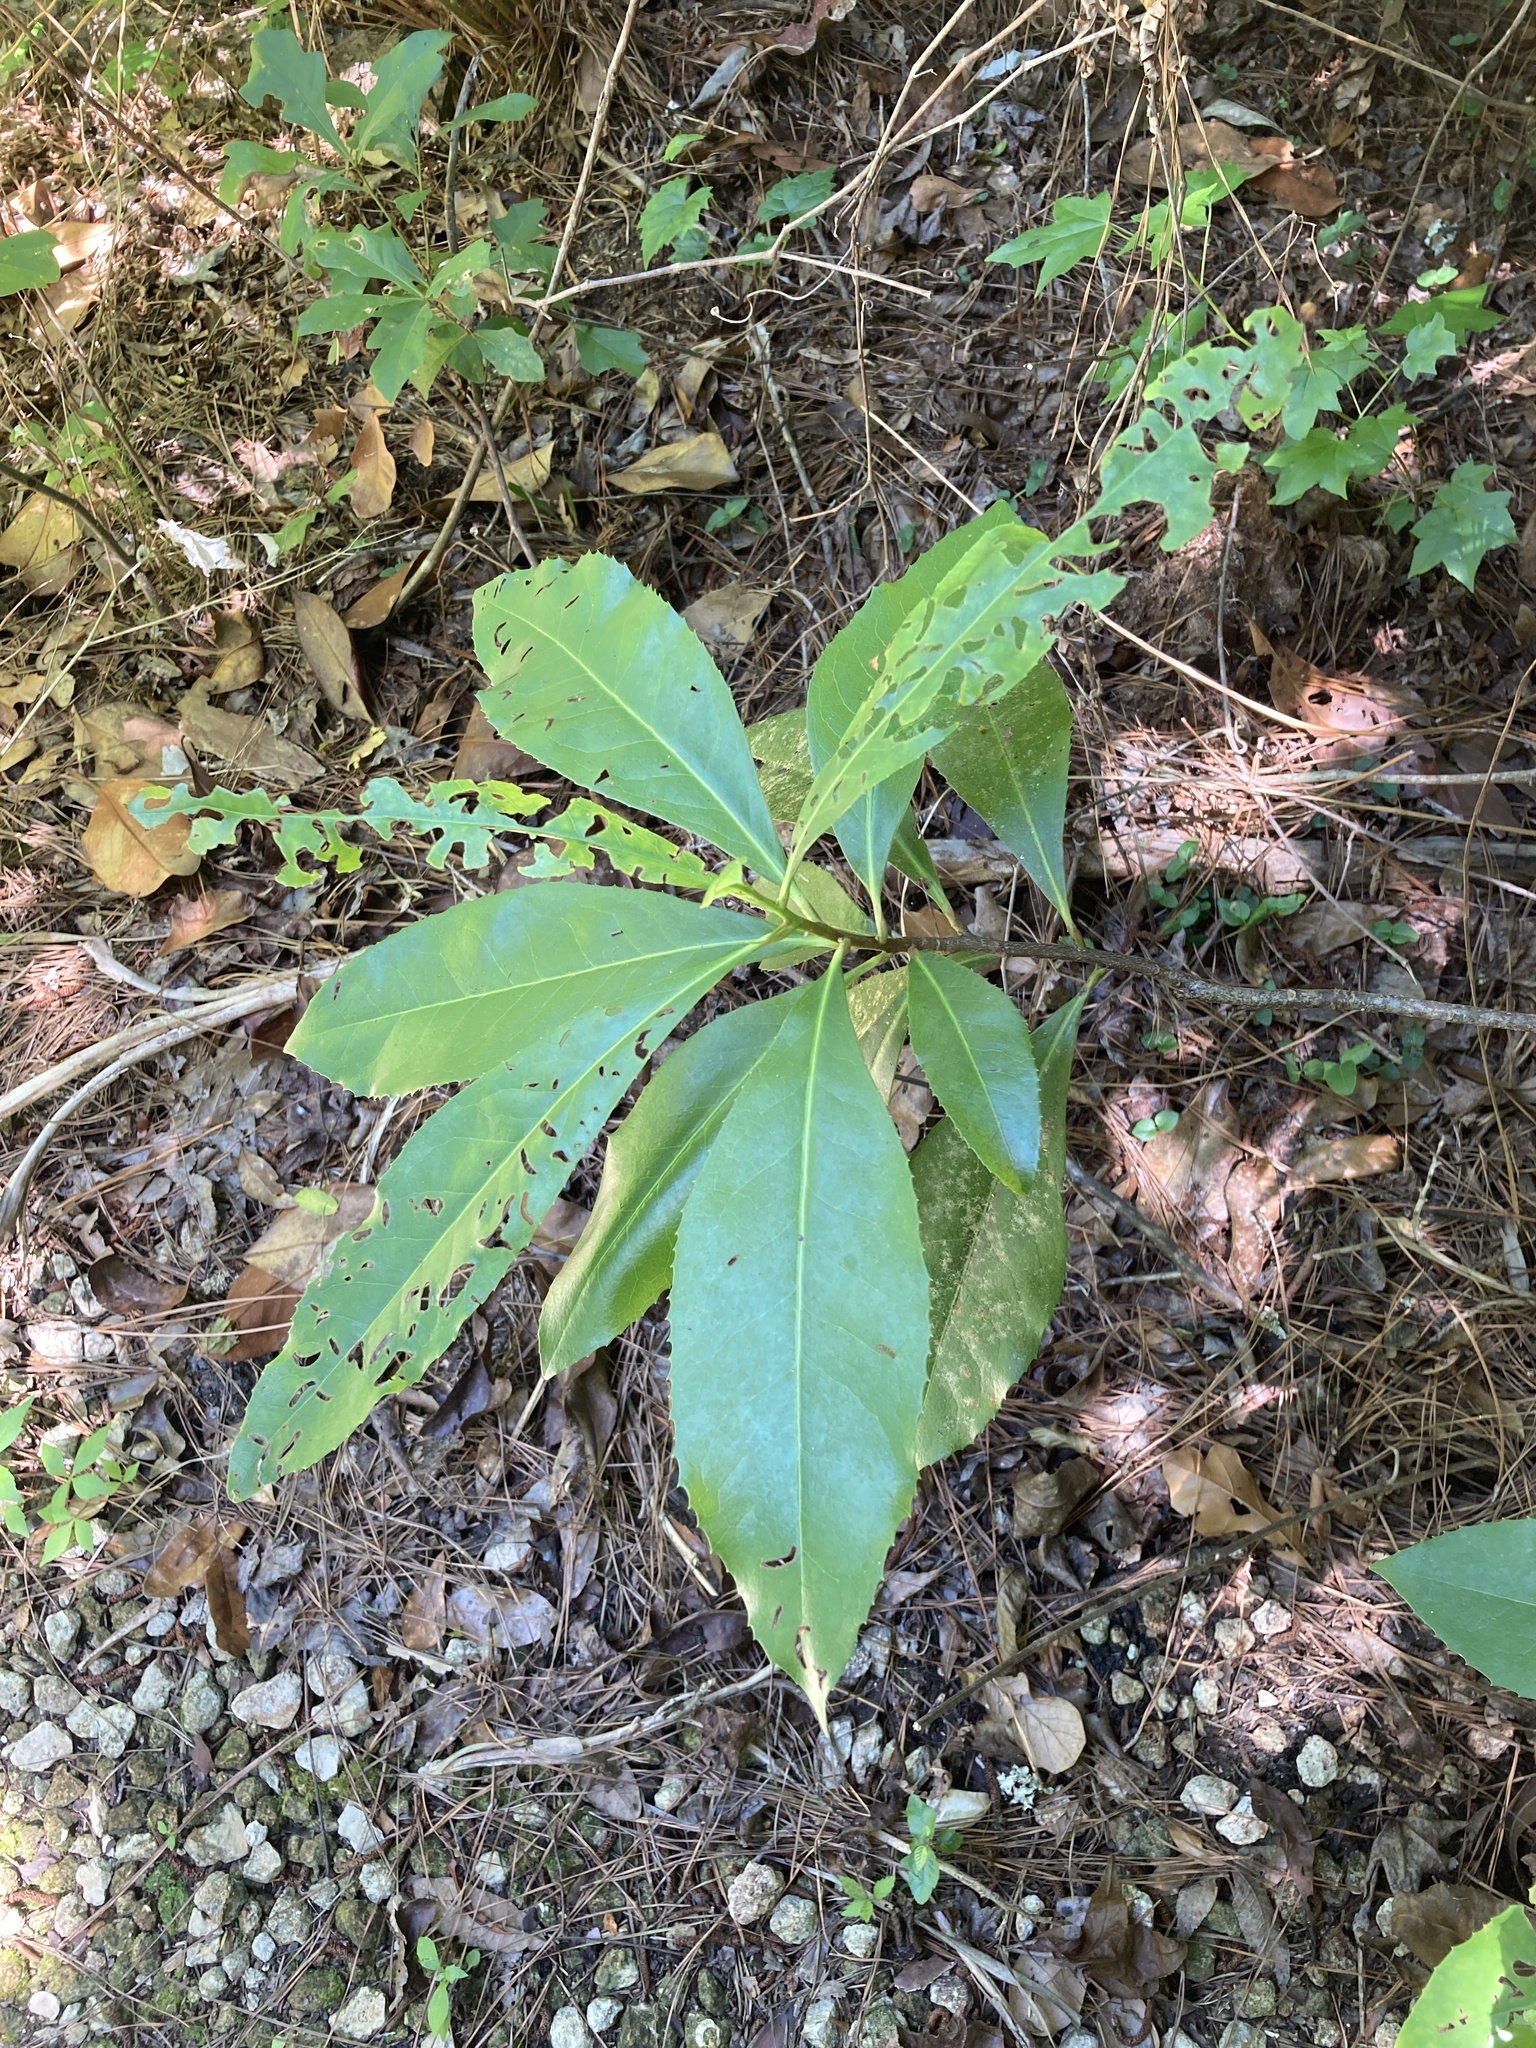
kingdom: Plantae
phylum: Tracheophyta
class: Magnoliopsida
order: Ericales
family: Theaceae
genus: Gordonia
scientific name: Gordonia lasianthus
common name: Loblolly bay
